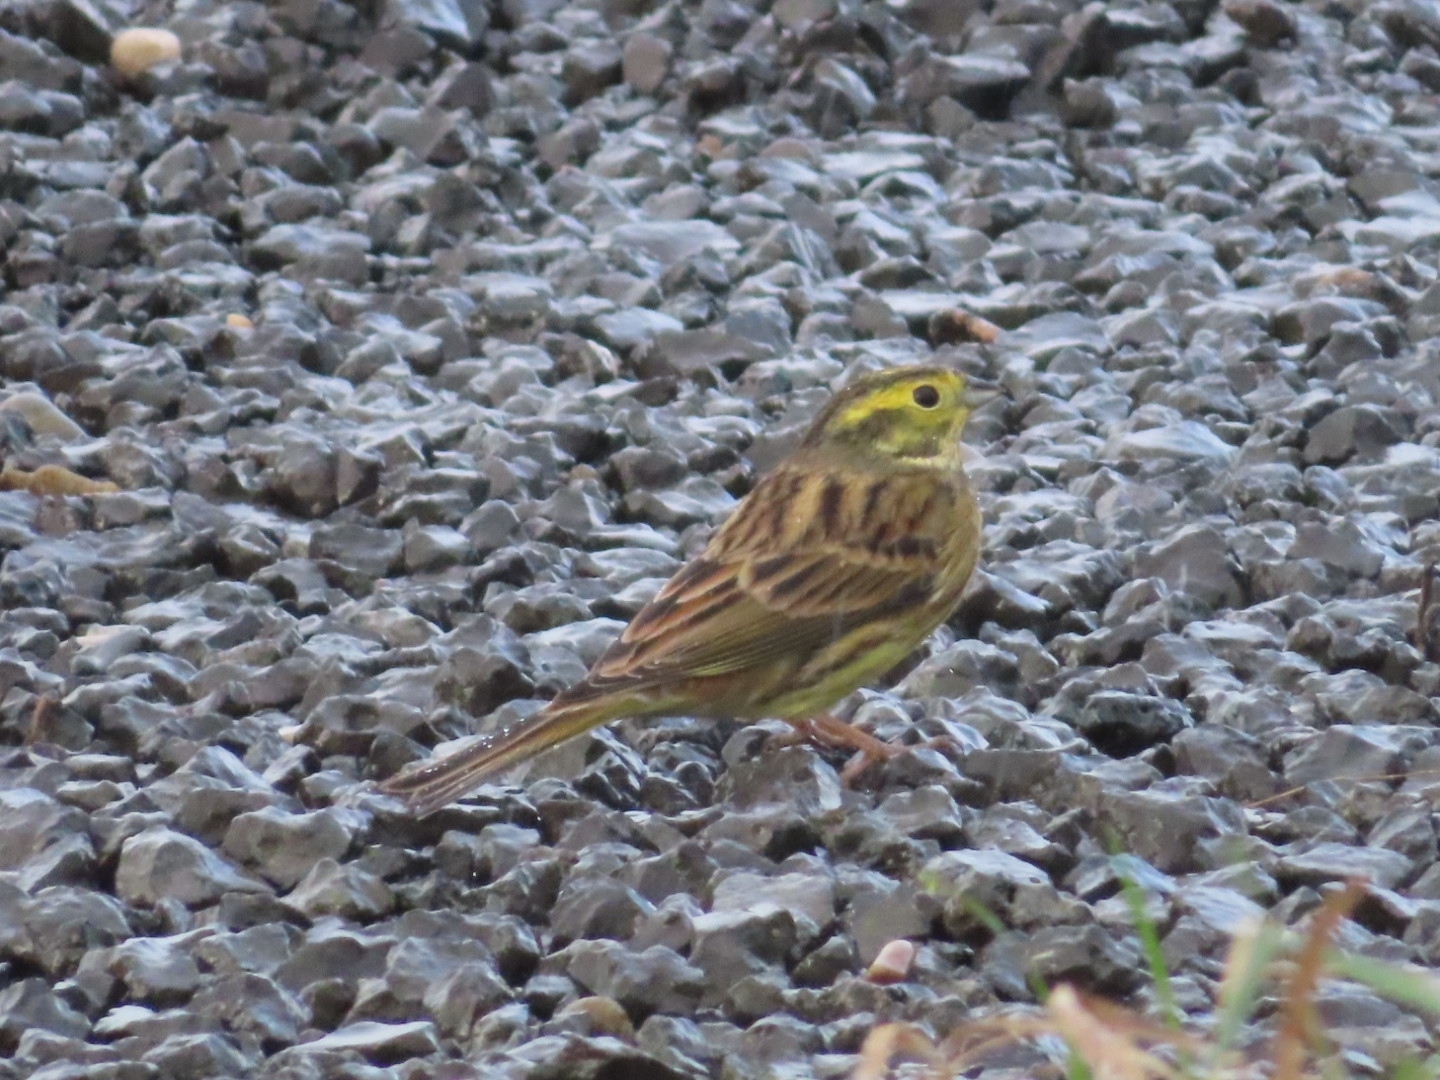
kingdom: Animalia
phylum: Chordata
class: Aves
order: Passeriformes
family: Emberizidae
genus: Emberiza
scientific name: Emberiza citrinella
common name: Yellowhammer
